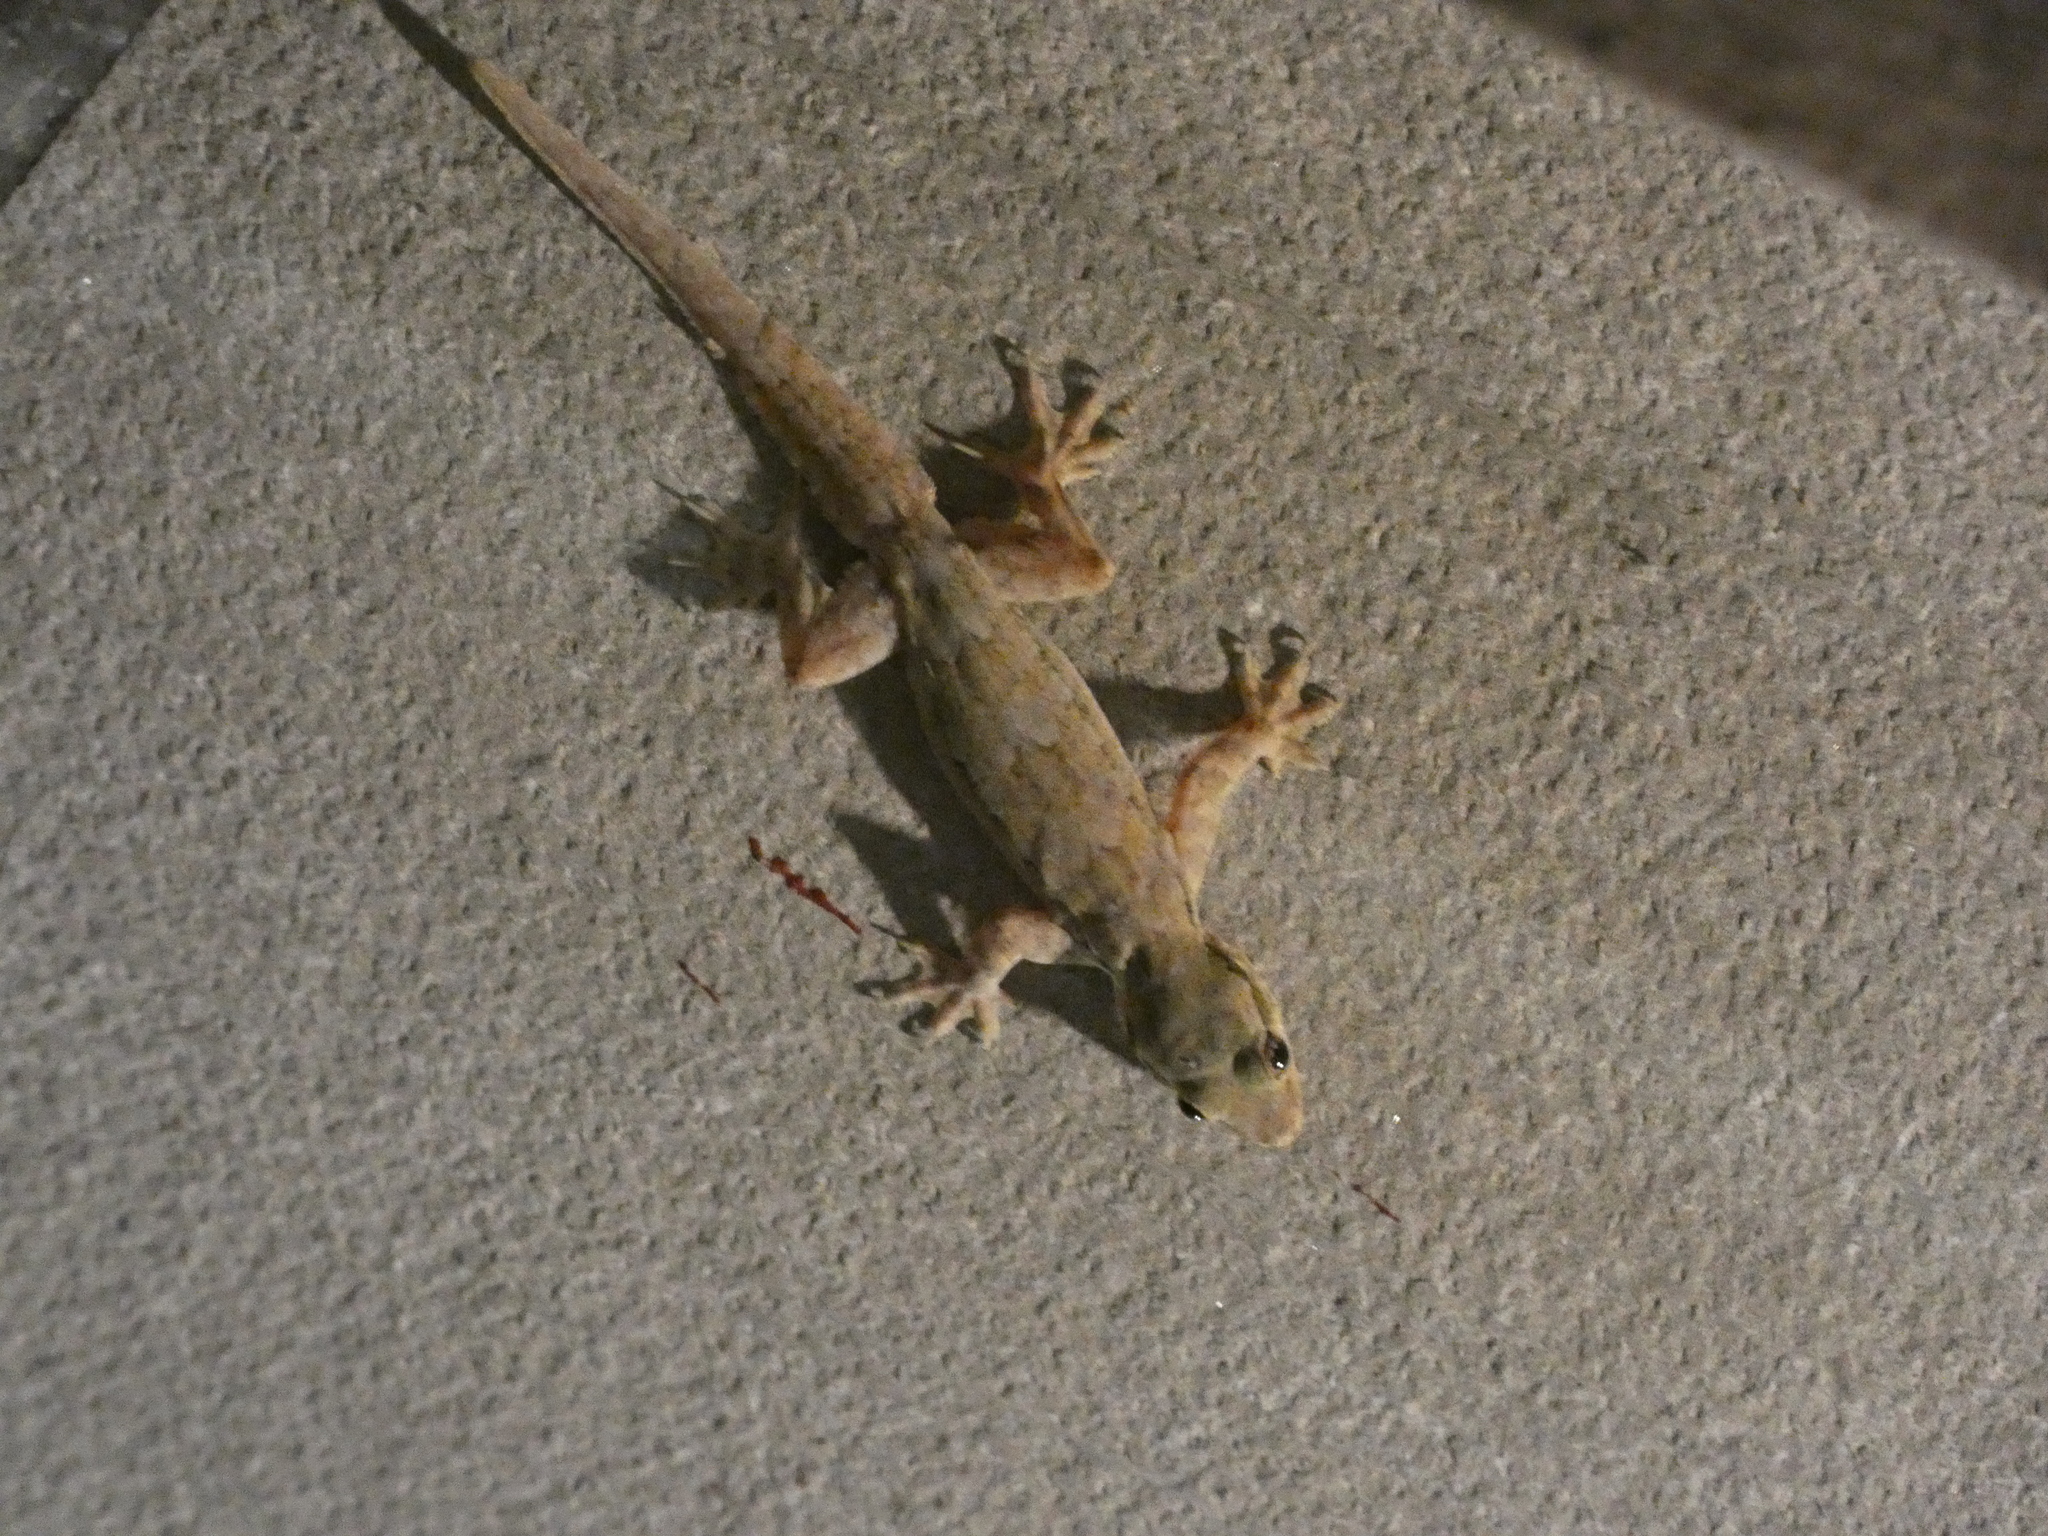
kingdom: Animalia
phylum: Chordata
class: Squamata
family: Gekkonidae
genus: Hemidactylus
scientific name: Hemidactylus platyurus
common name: Flat-tailed house gecko
